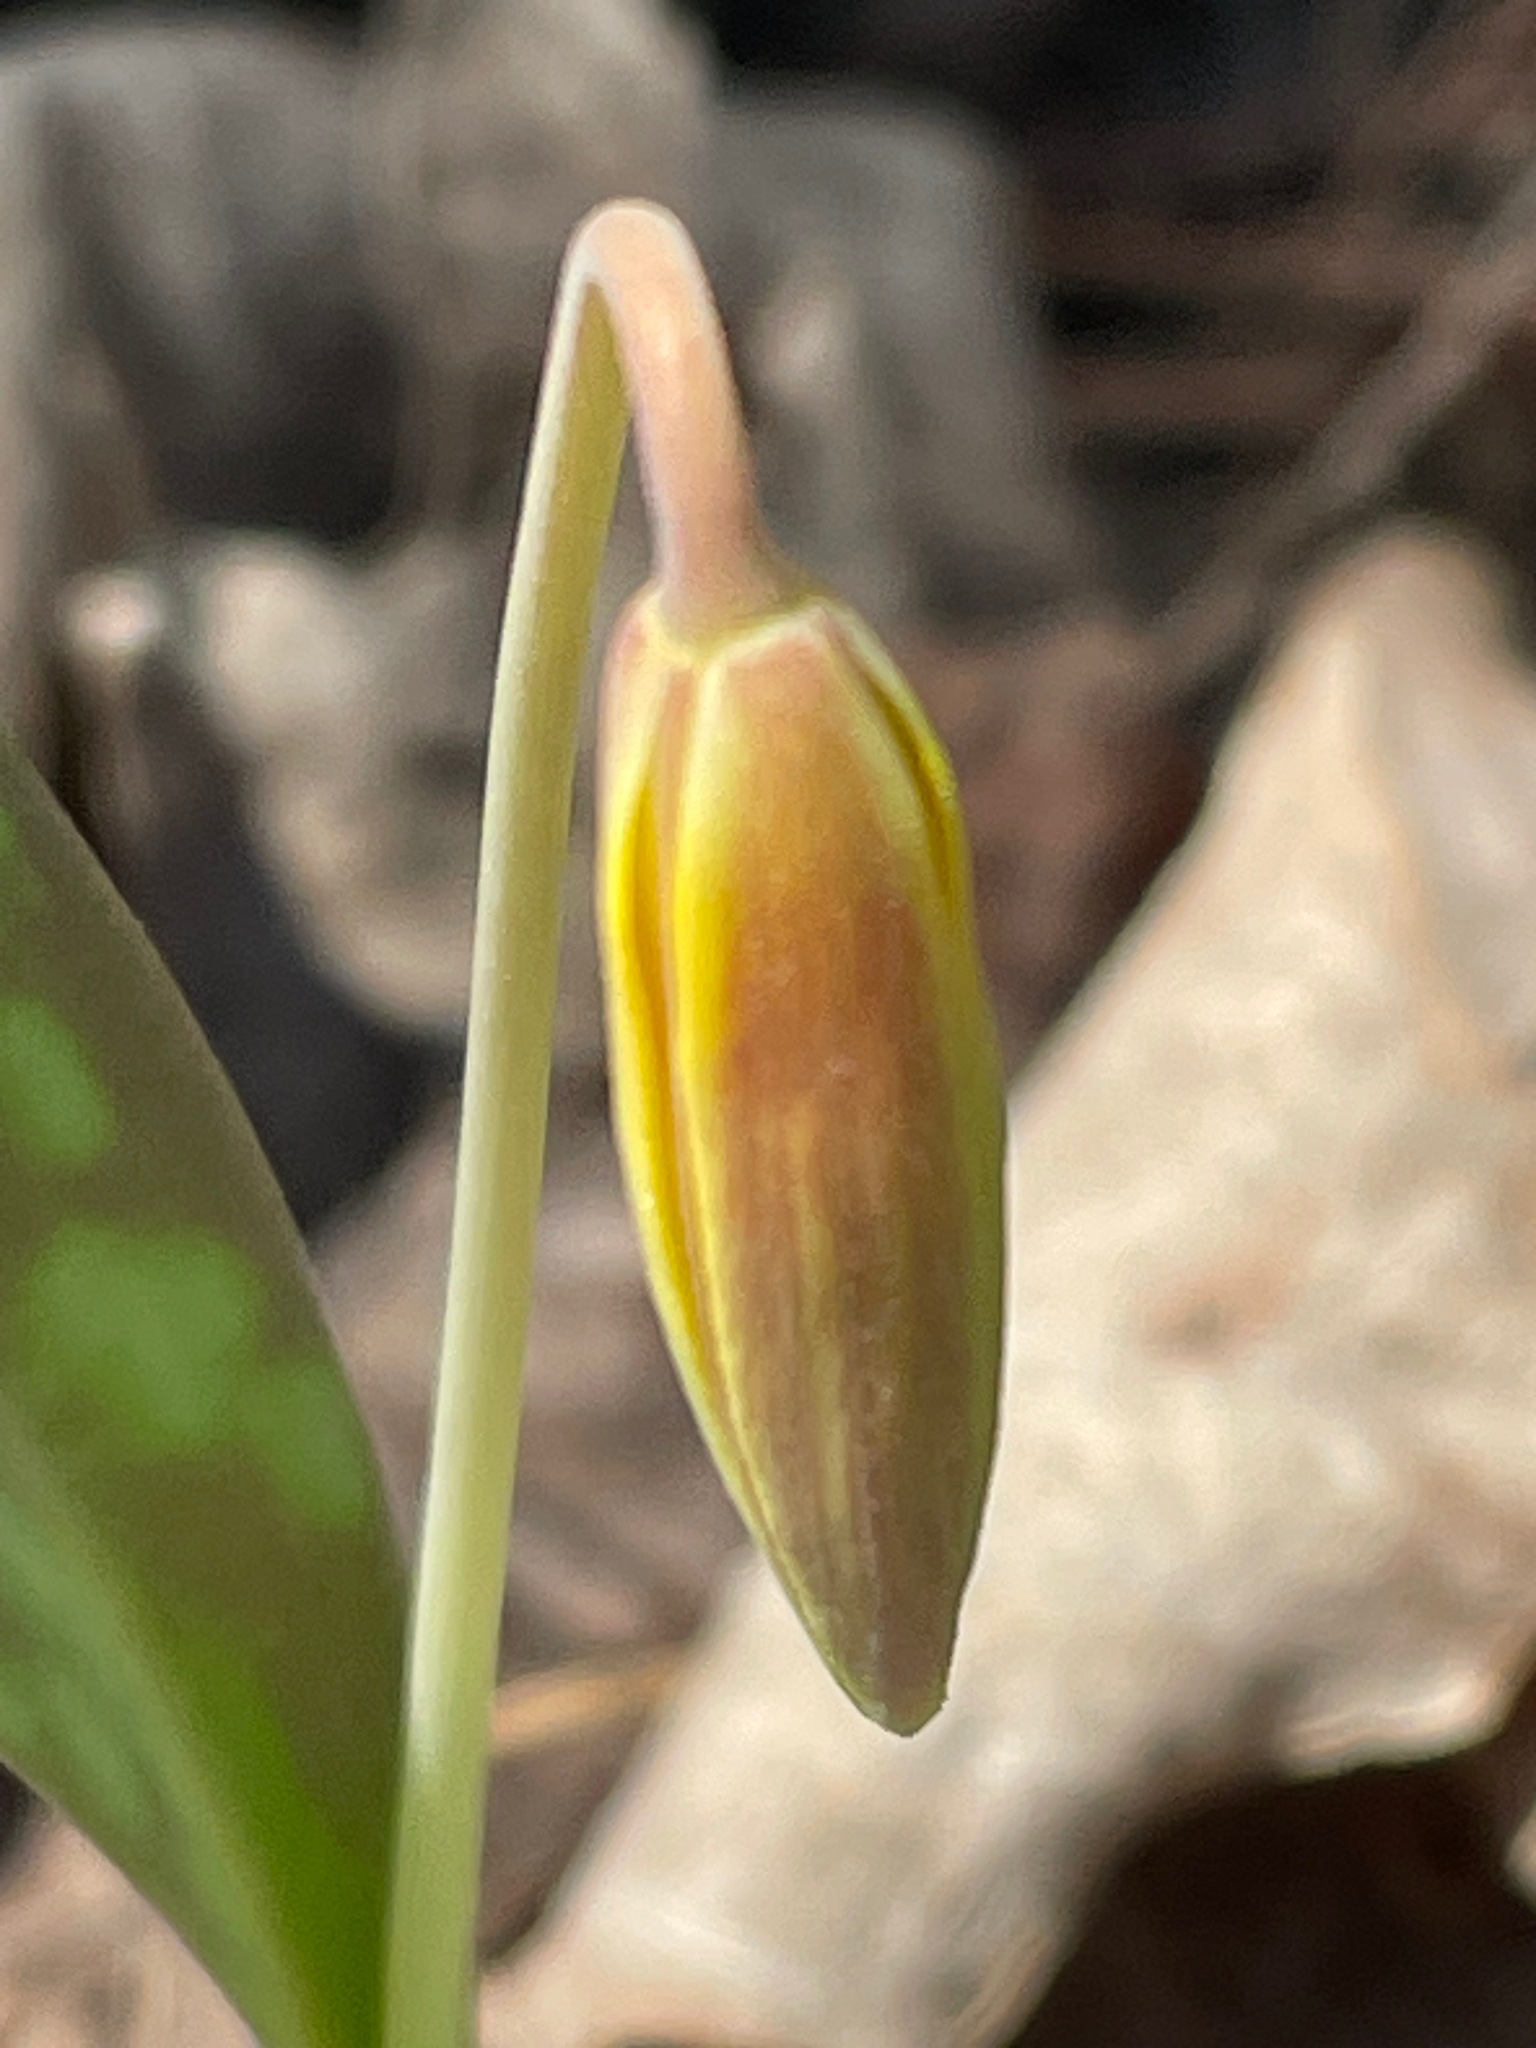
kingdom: Plantae
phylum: Tracheophyta
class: Liliopsida
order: Liliales
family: Liliaceae
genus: Erythronium
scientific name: Erythronium americanum
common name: Yellow adder's-tongue
